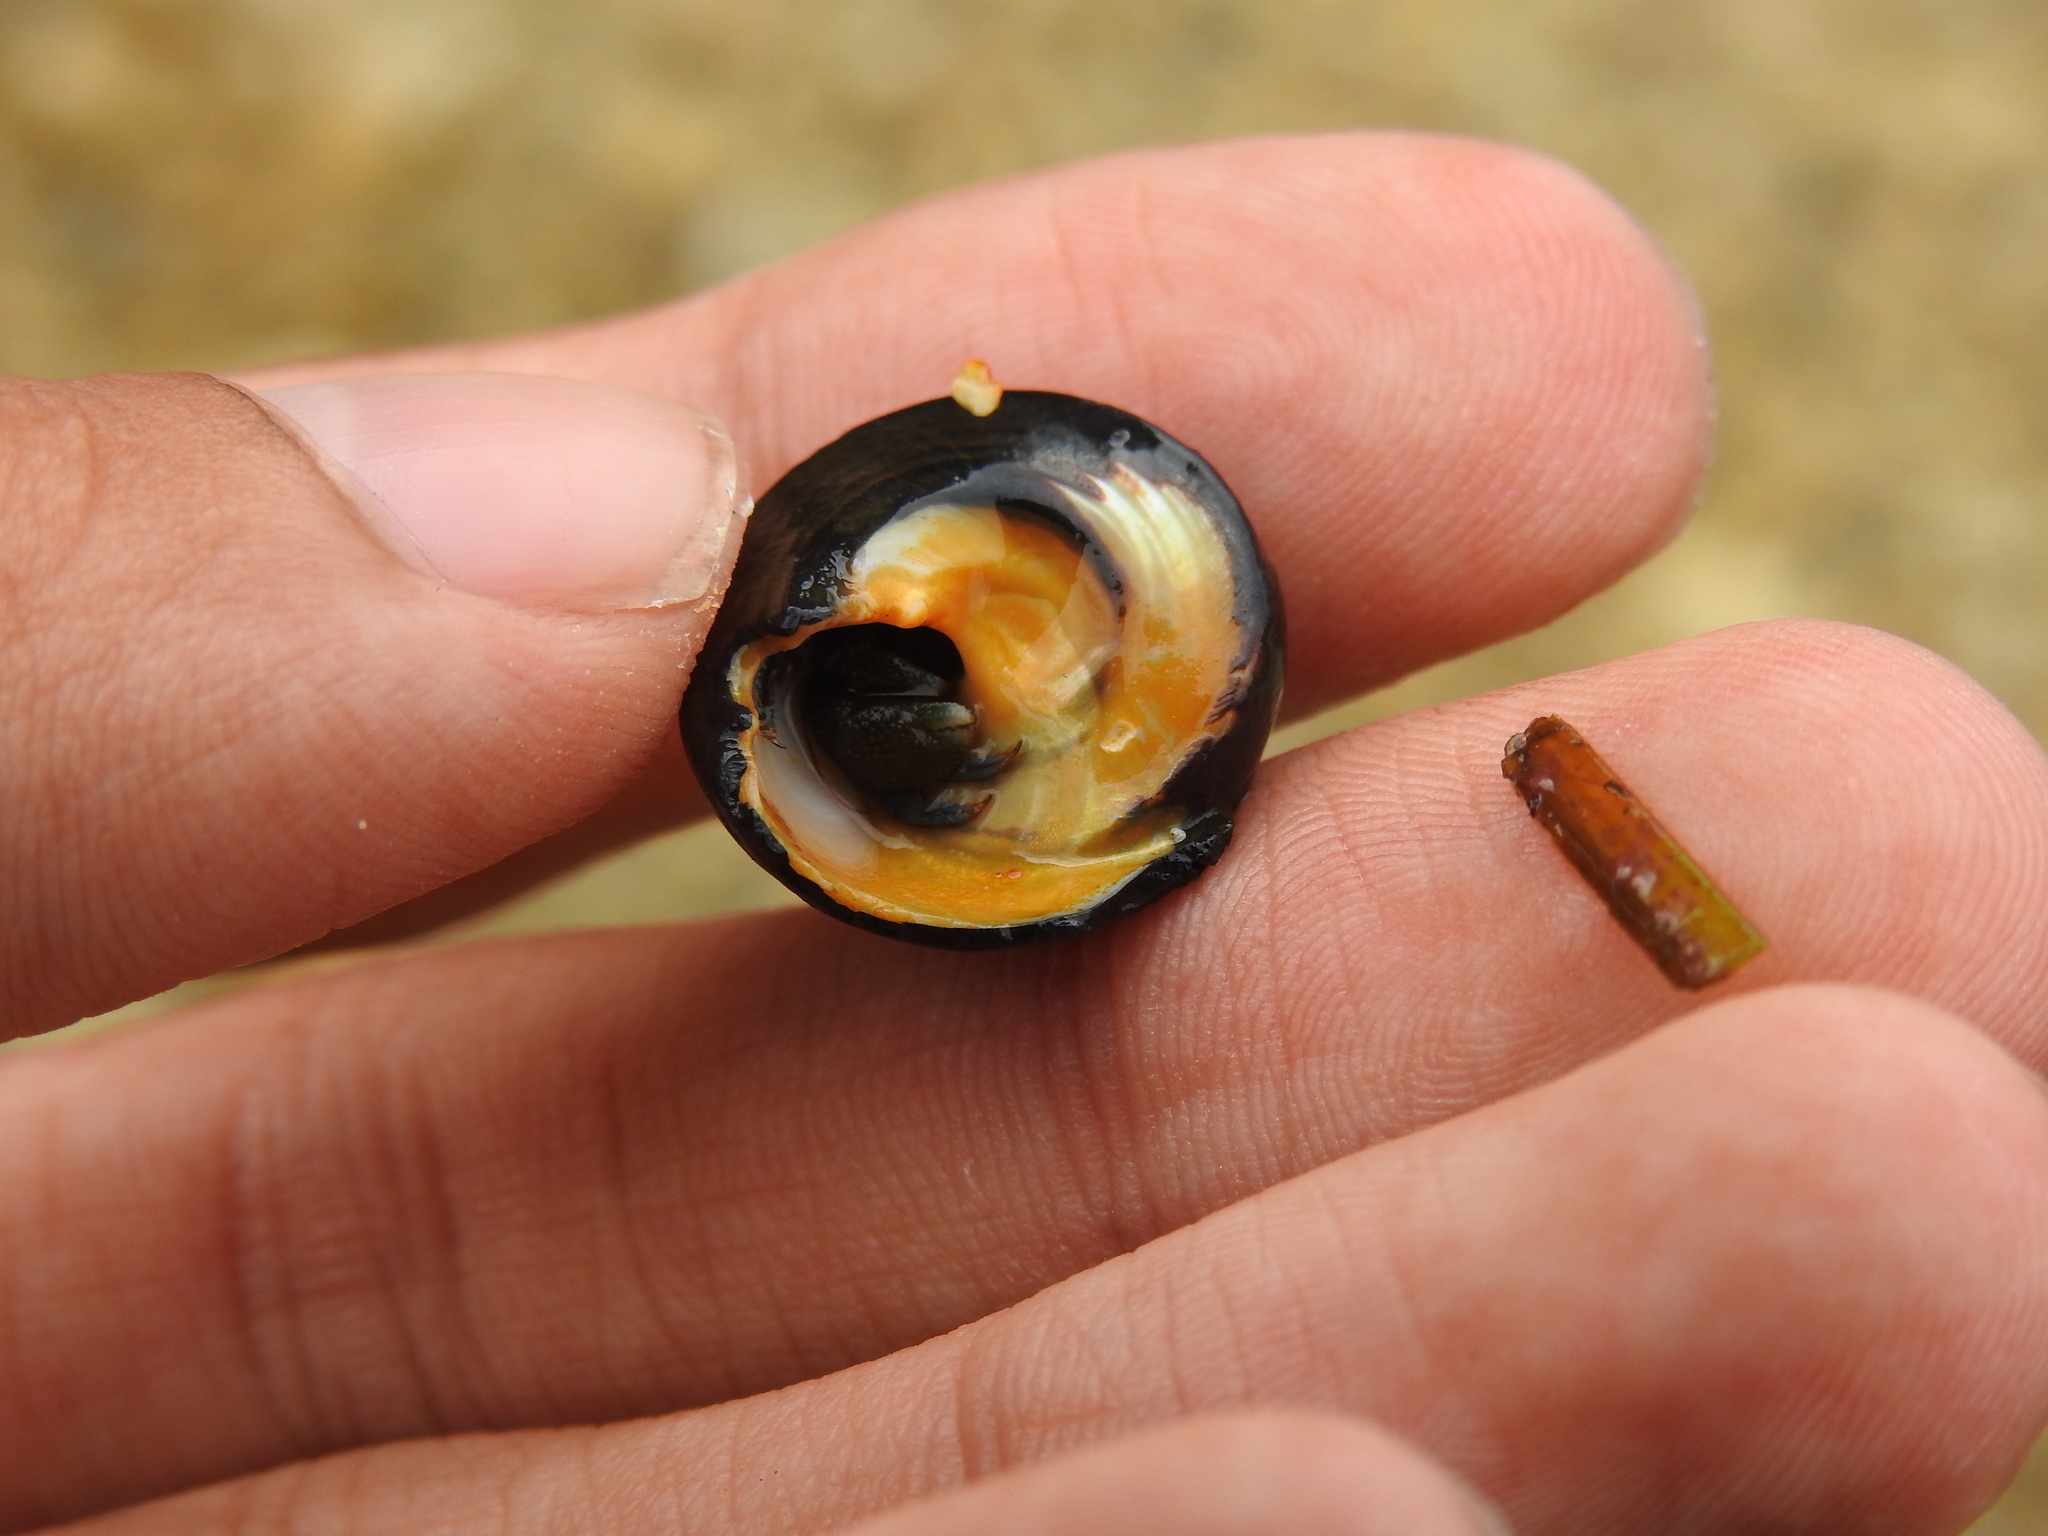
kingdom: Animalia
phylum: Arthropoda
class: Malacostraca
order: Decapoda
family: Paguridae
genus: Pagurus
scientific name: Pagurus samuelis
